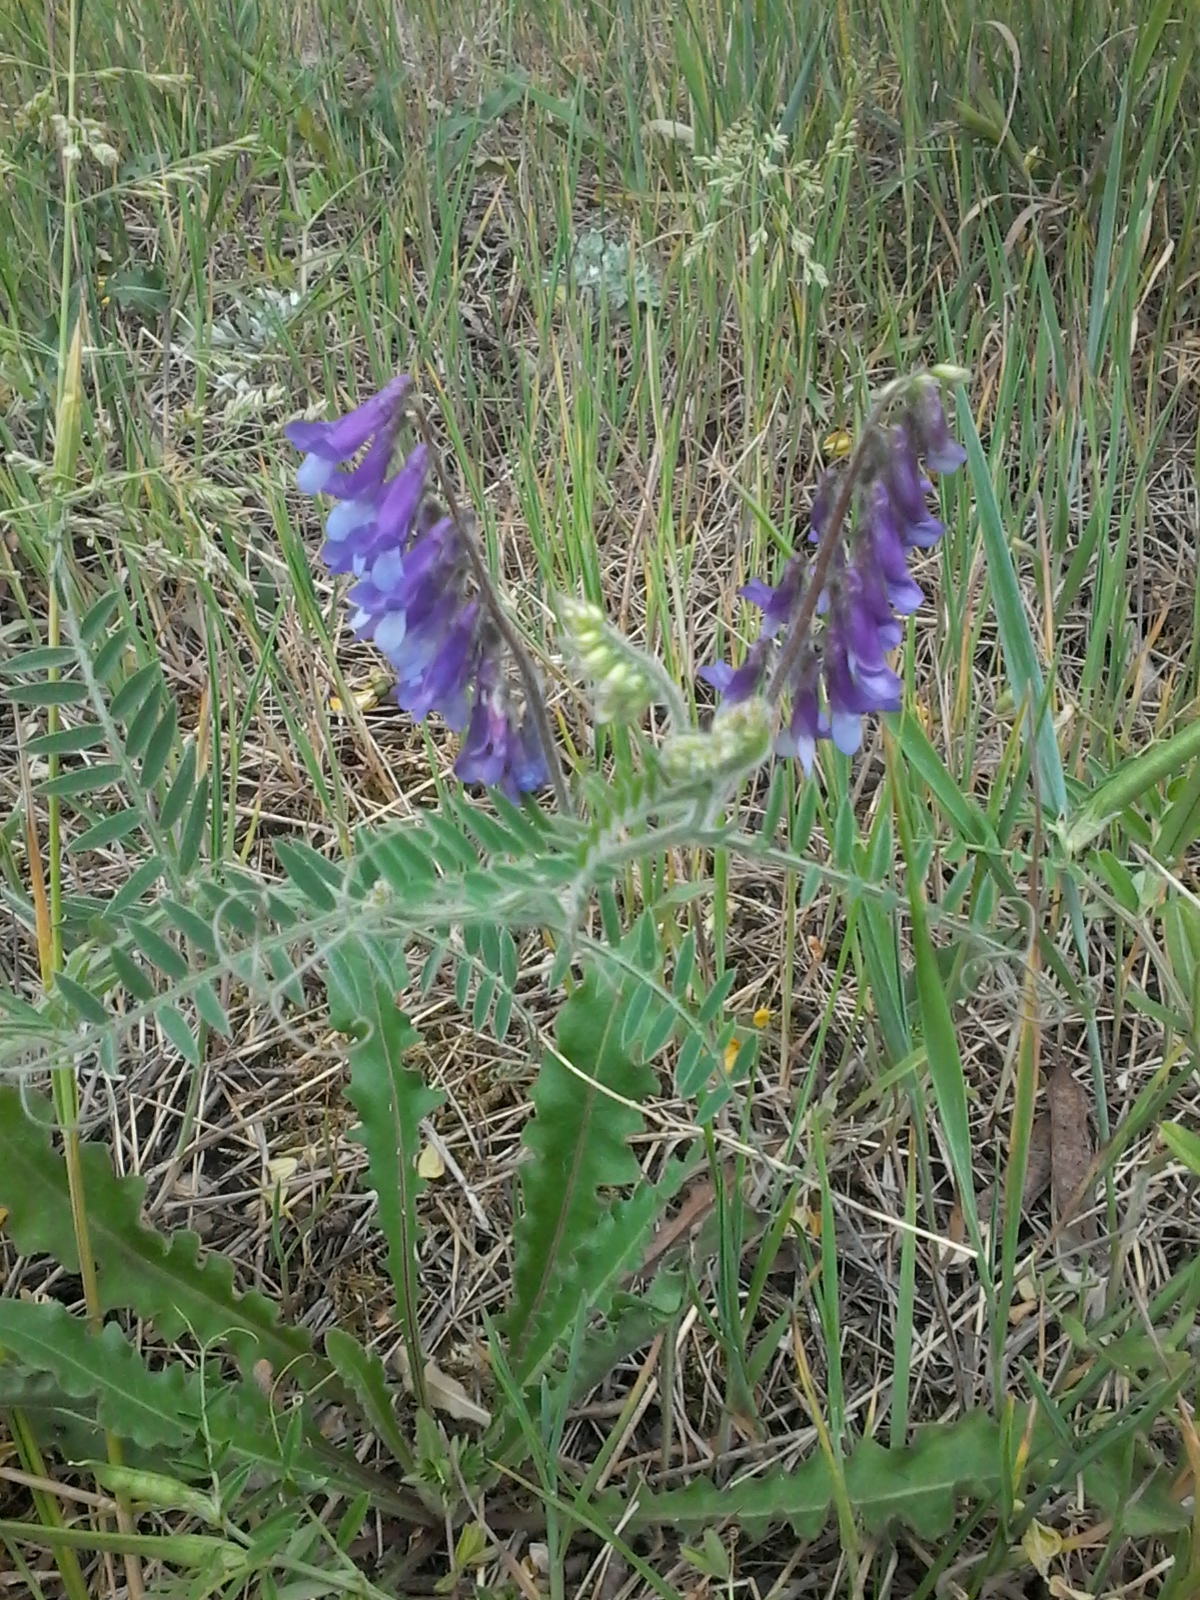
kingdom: Plantae
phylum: Tracheophyta
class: Magnoliopsida
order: Fabales
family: Fabaceae
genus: Vicia
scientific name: Vicia villosa
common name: Fodder vetch
